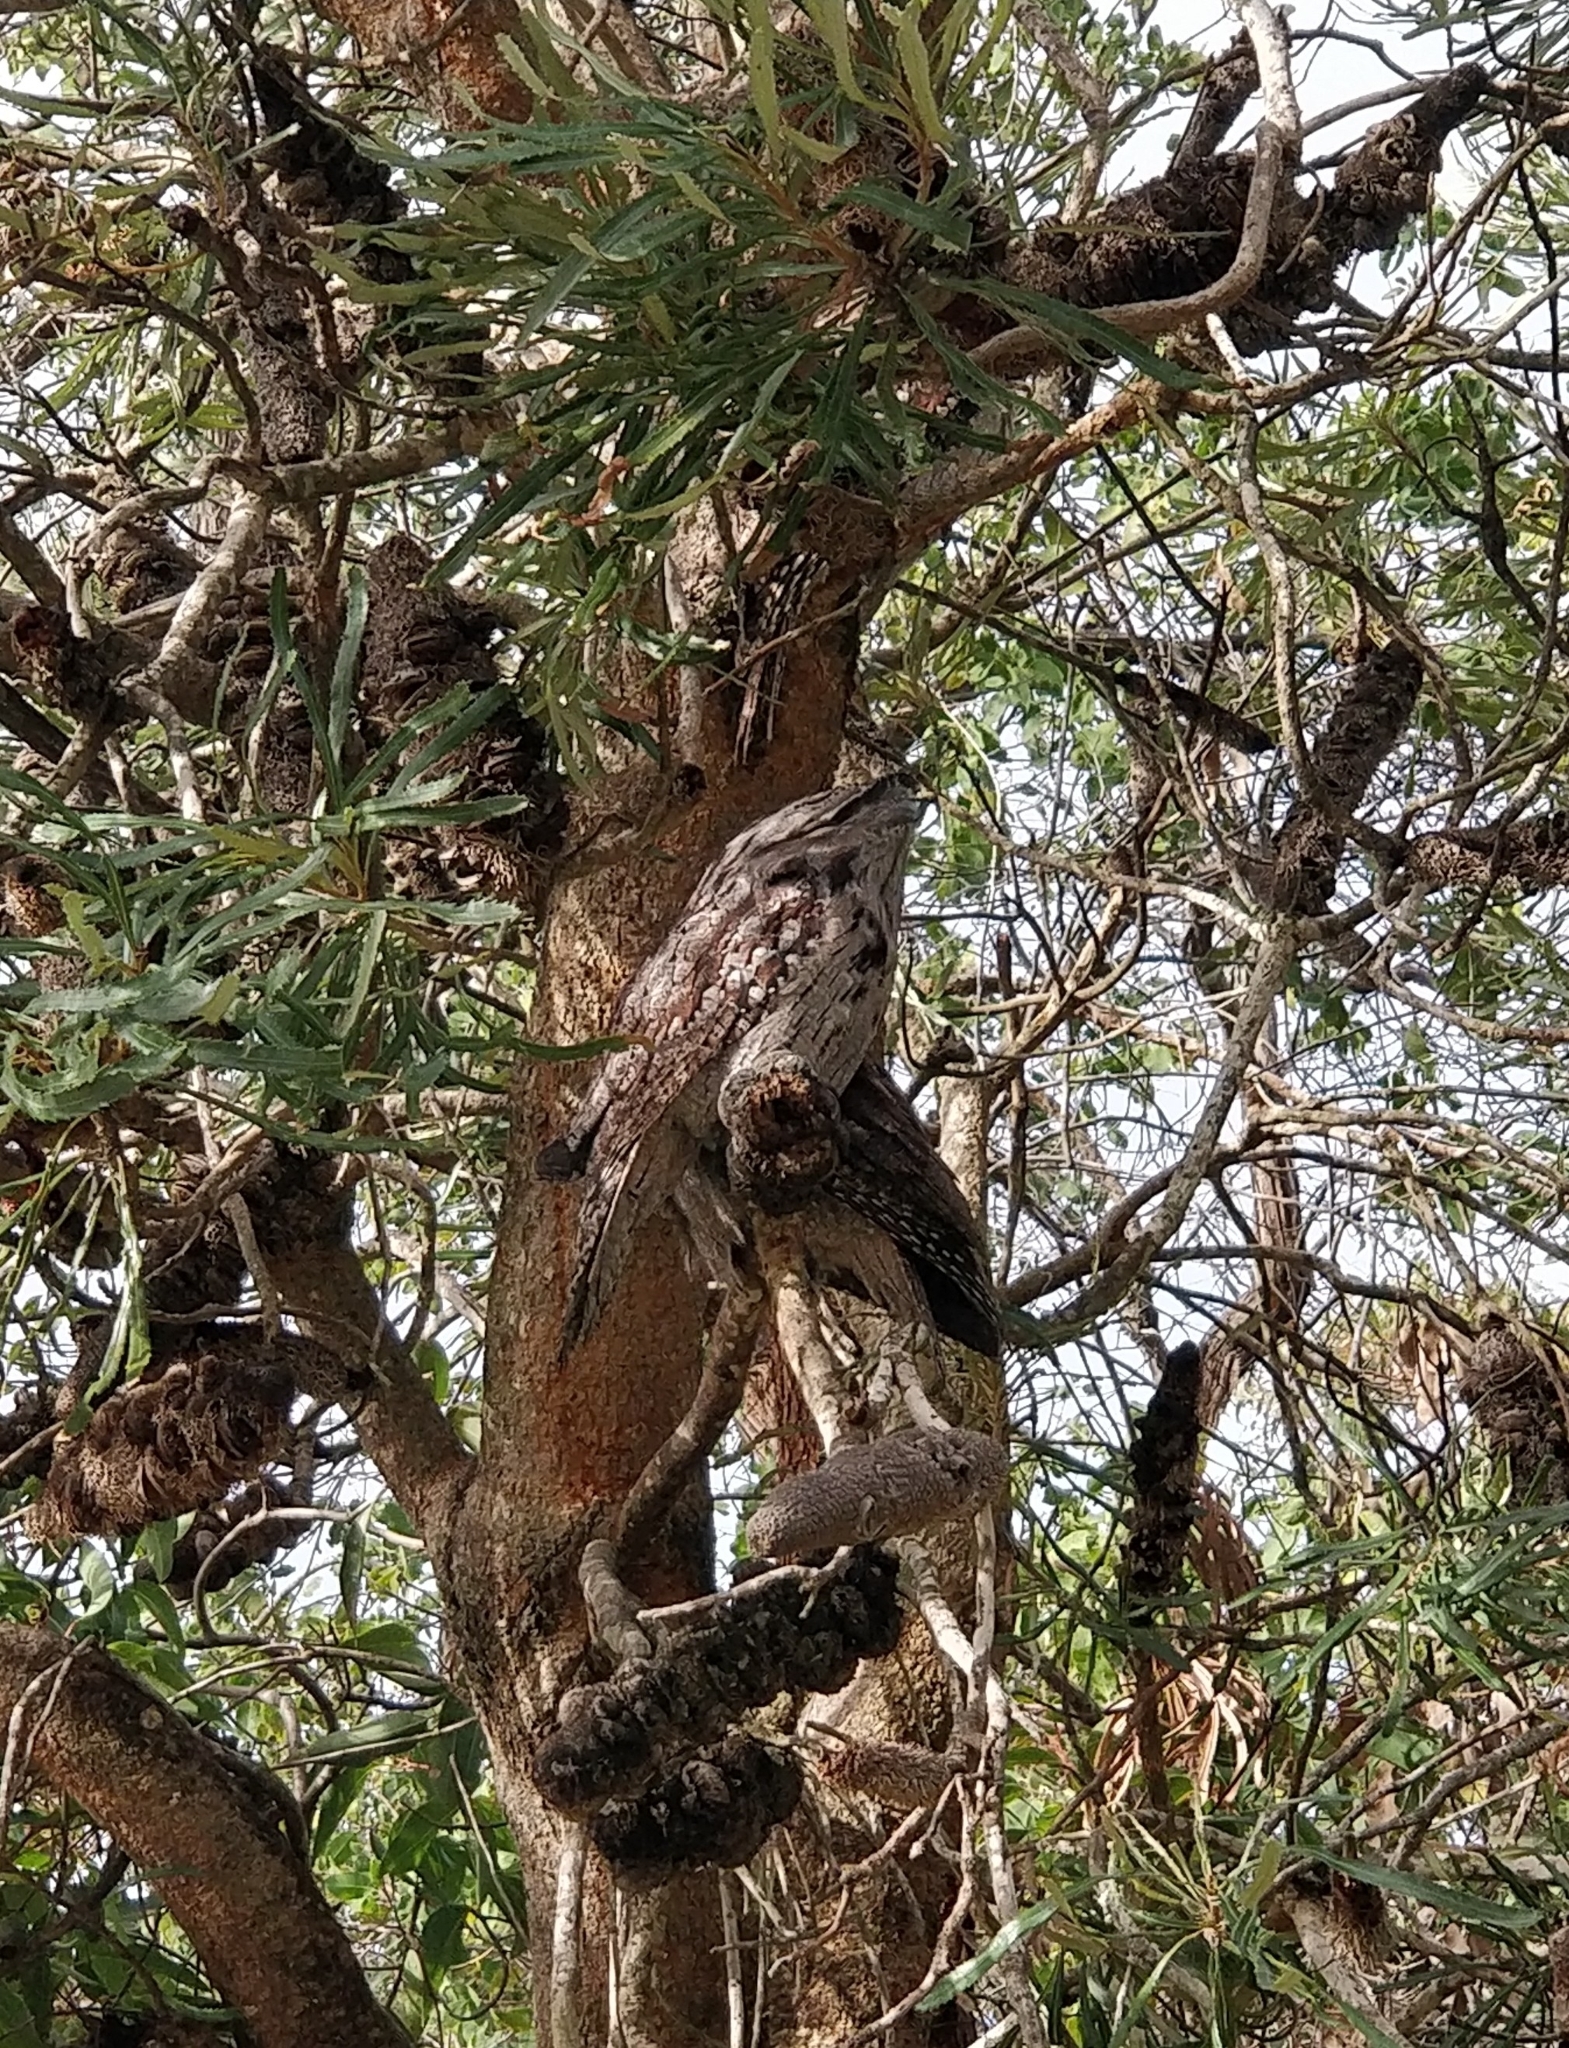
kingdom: Animalia
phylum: Chordata
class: Aves
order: Caprimulgiformes
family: Podargidae
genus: Podargus
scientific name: Podargus strigoides
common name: Tawny frogmouth
